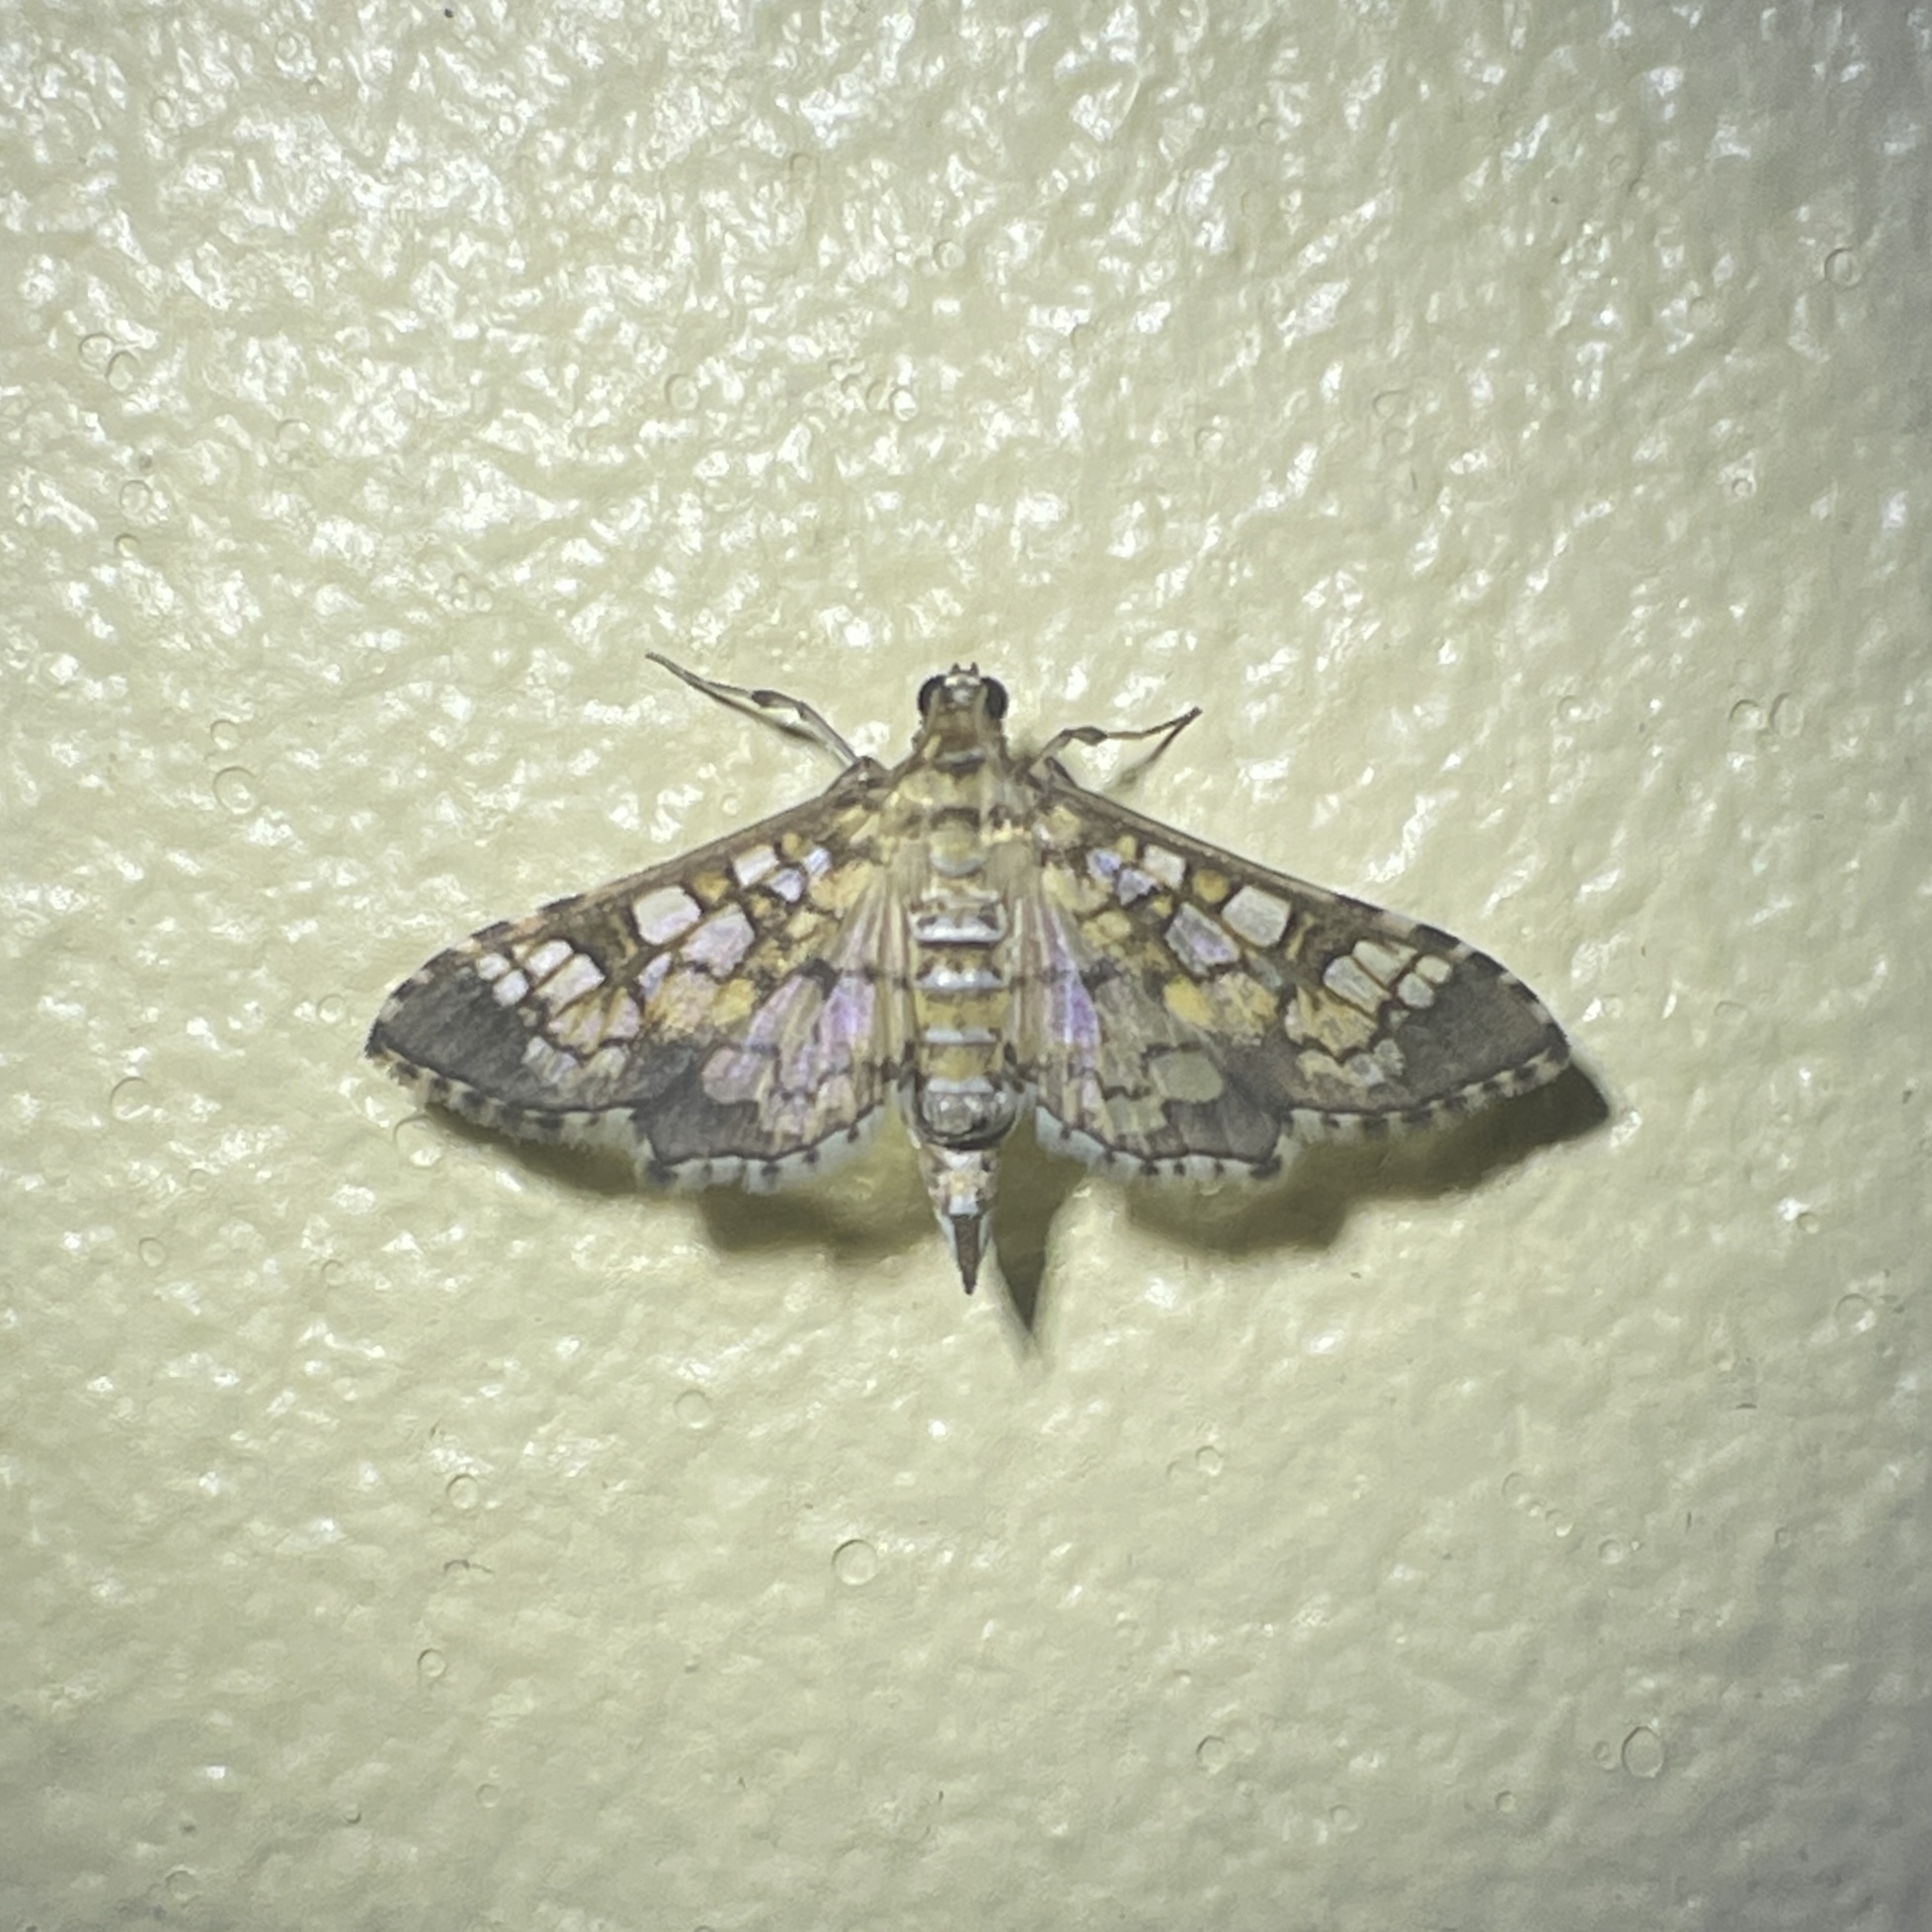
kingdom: Animalia
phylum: Arthropoda
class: Insecta
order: Lepidoptera
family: Crambidae
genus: Samea
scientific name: Samea ecclesialis
